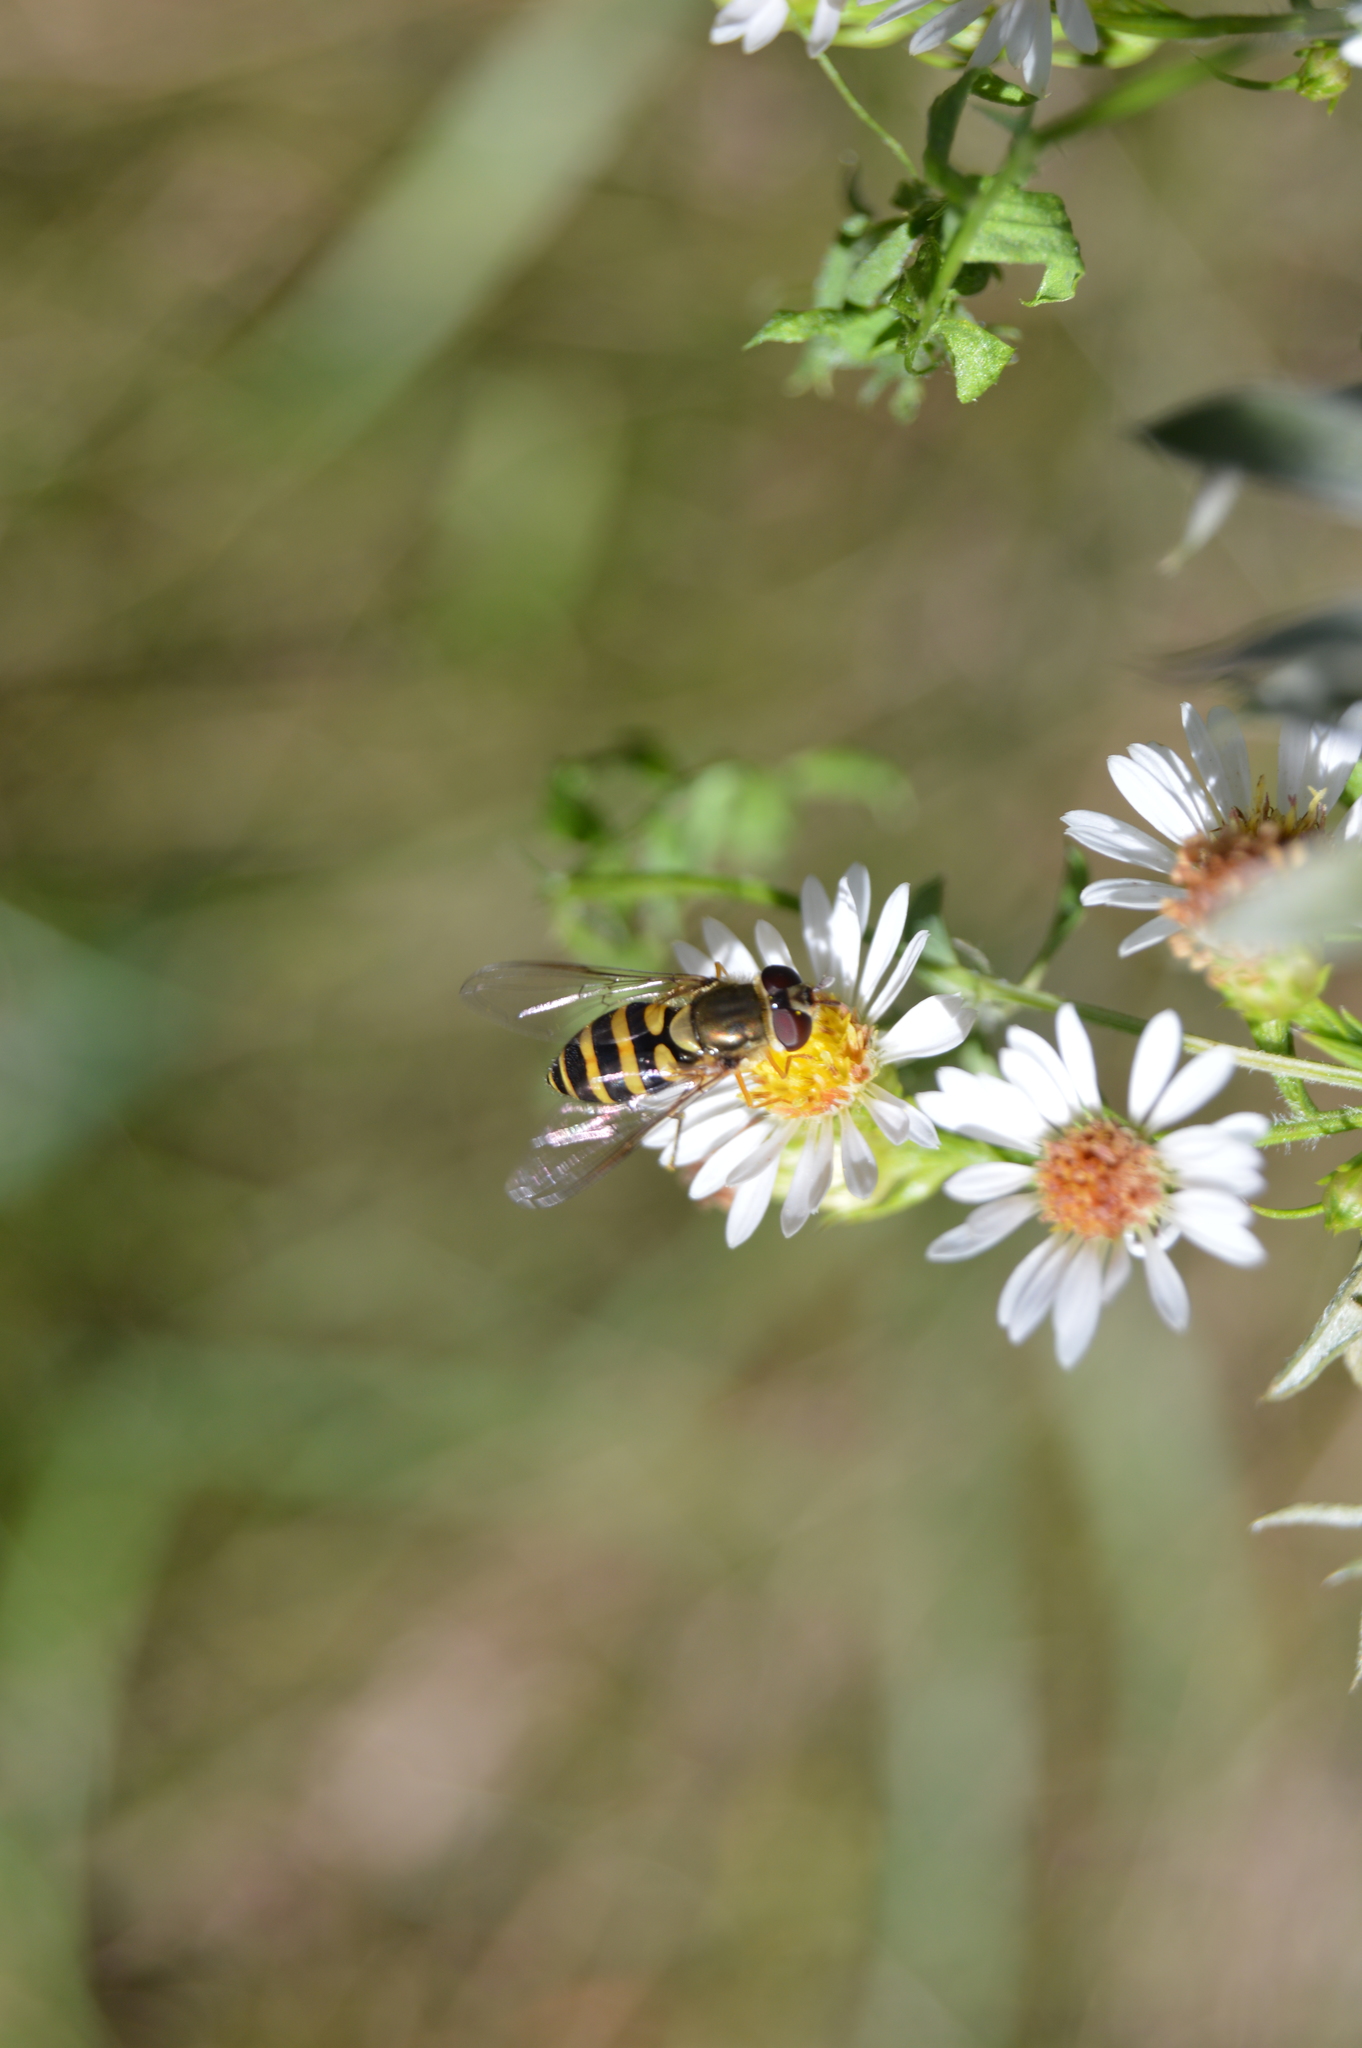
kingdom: Animalia
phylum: Arthropoda
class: Insecta
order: Diptera
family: Syrphidae
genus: Syrphus
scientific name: Syrphus
